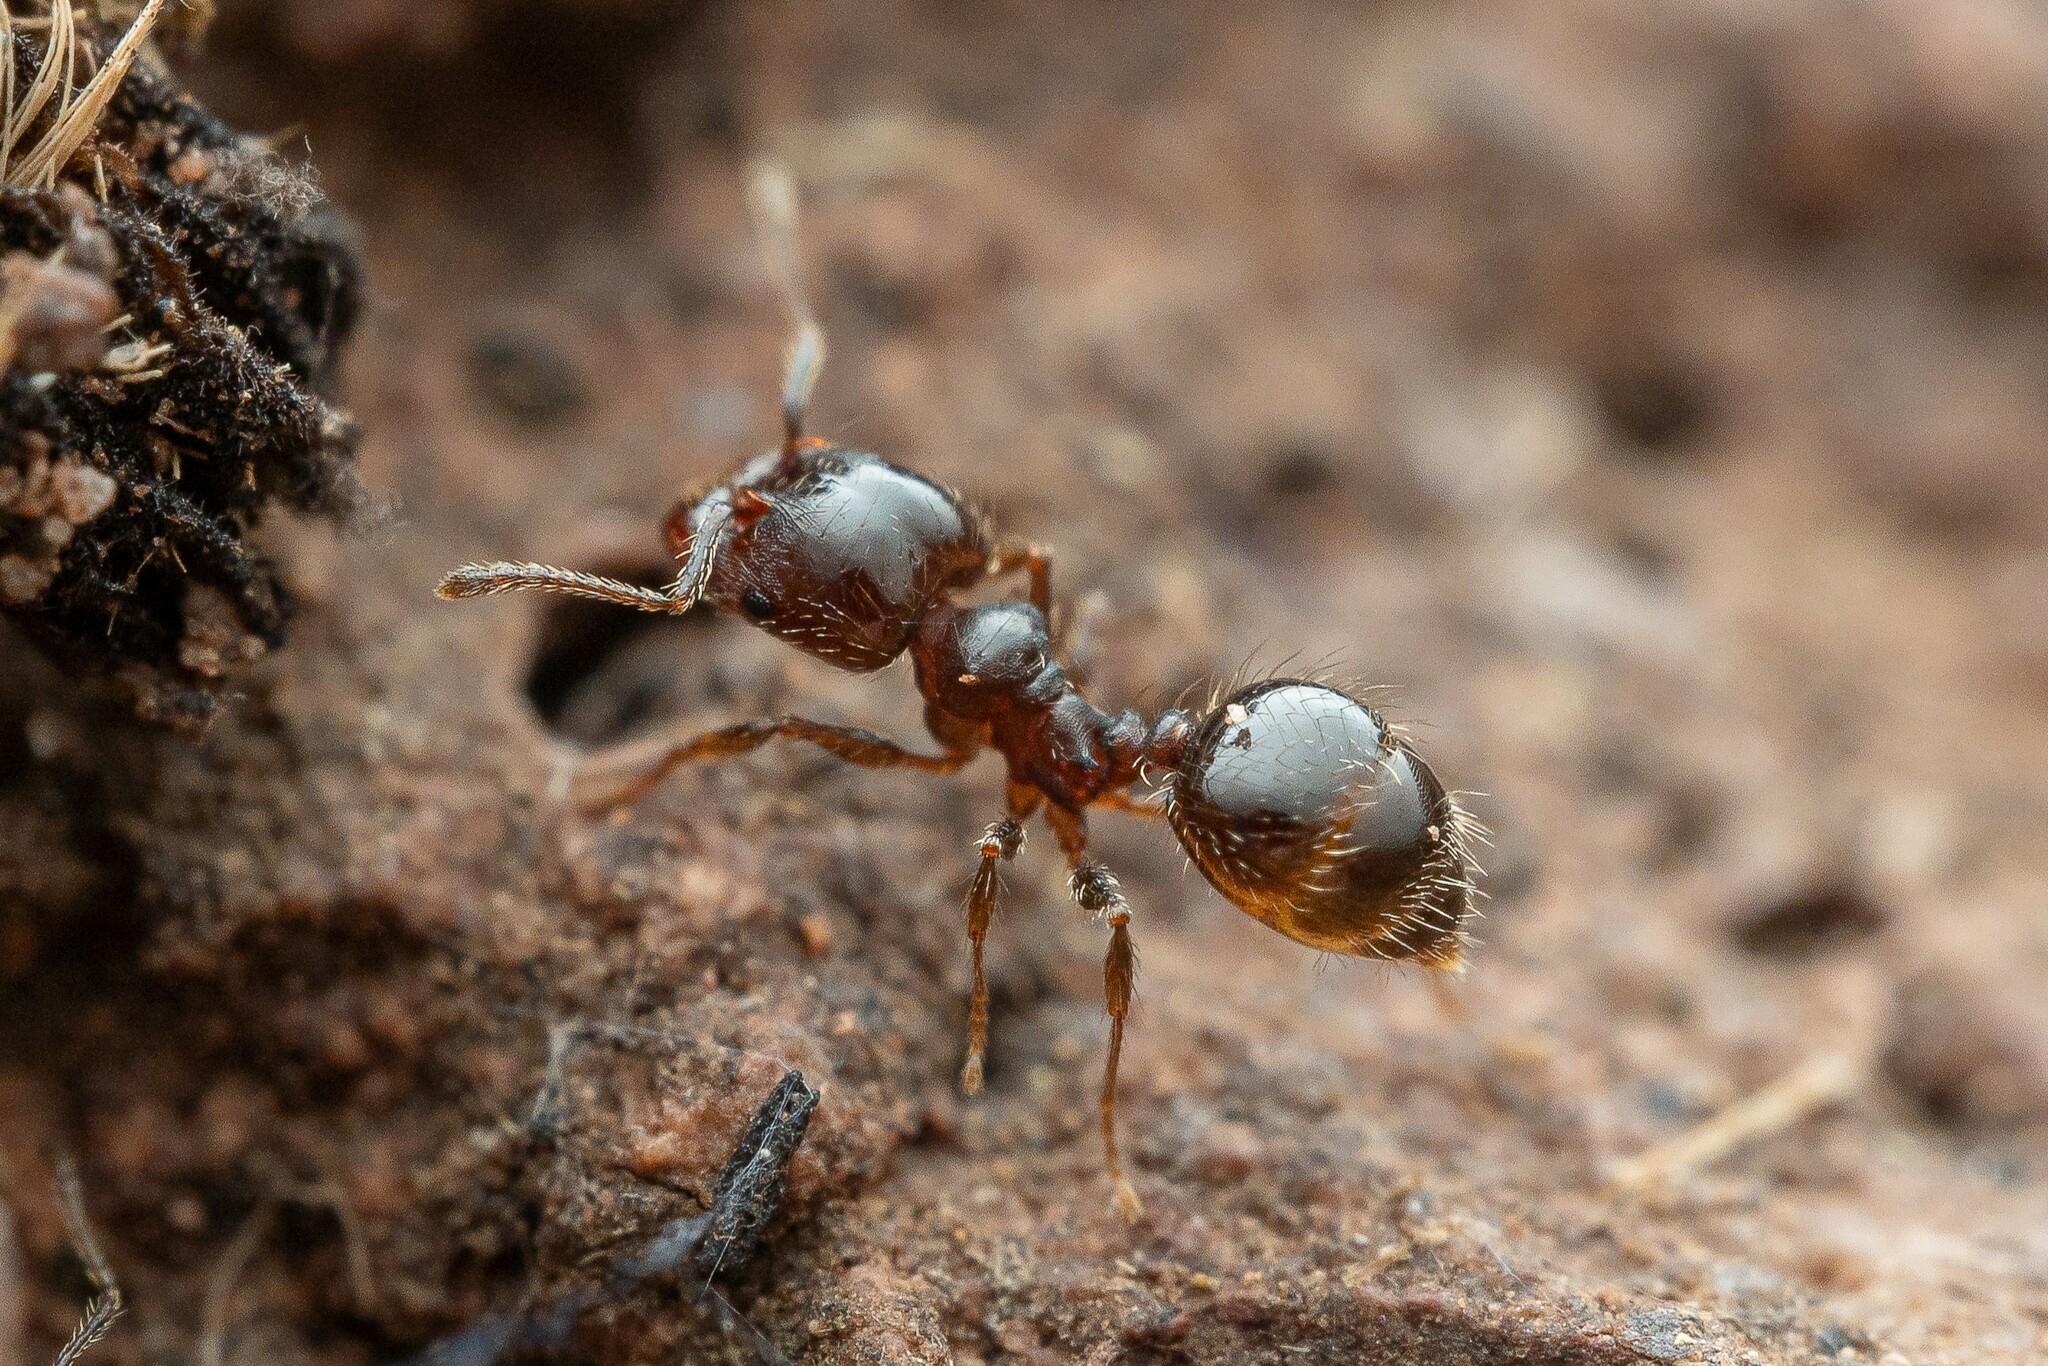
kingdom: Animalia
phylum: Arthropoda
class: Insecta
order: Hymenoptera
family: Formicidae
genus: Pheidole
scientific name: Pheidole
